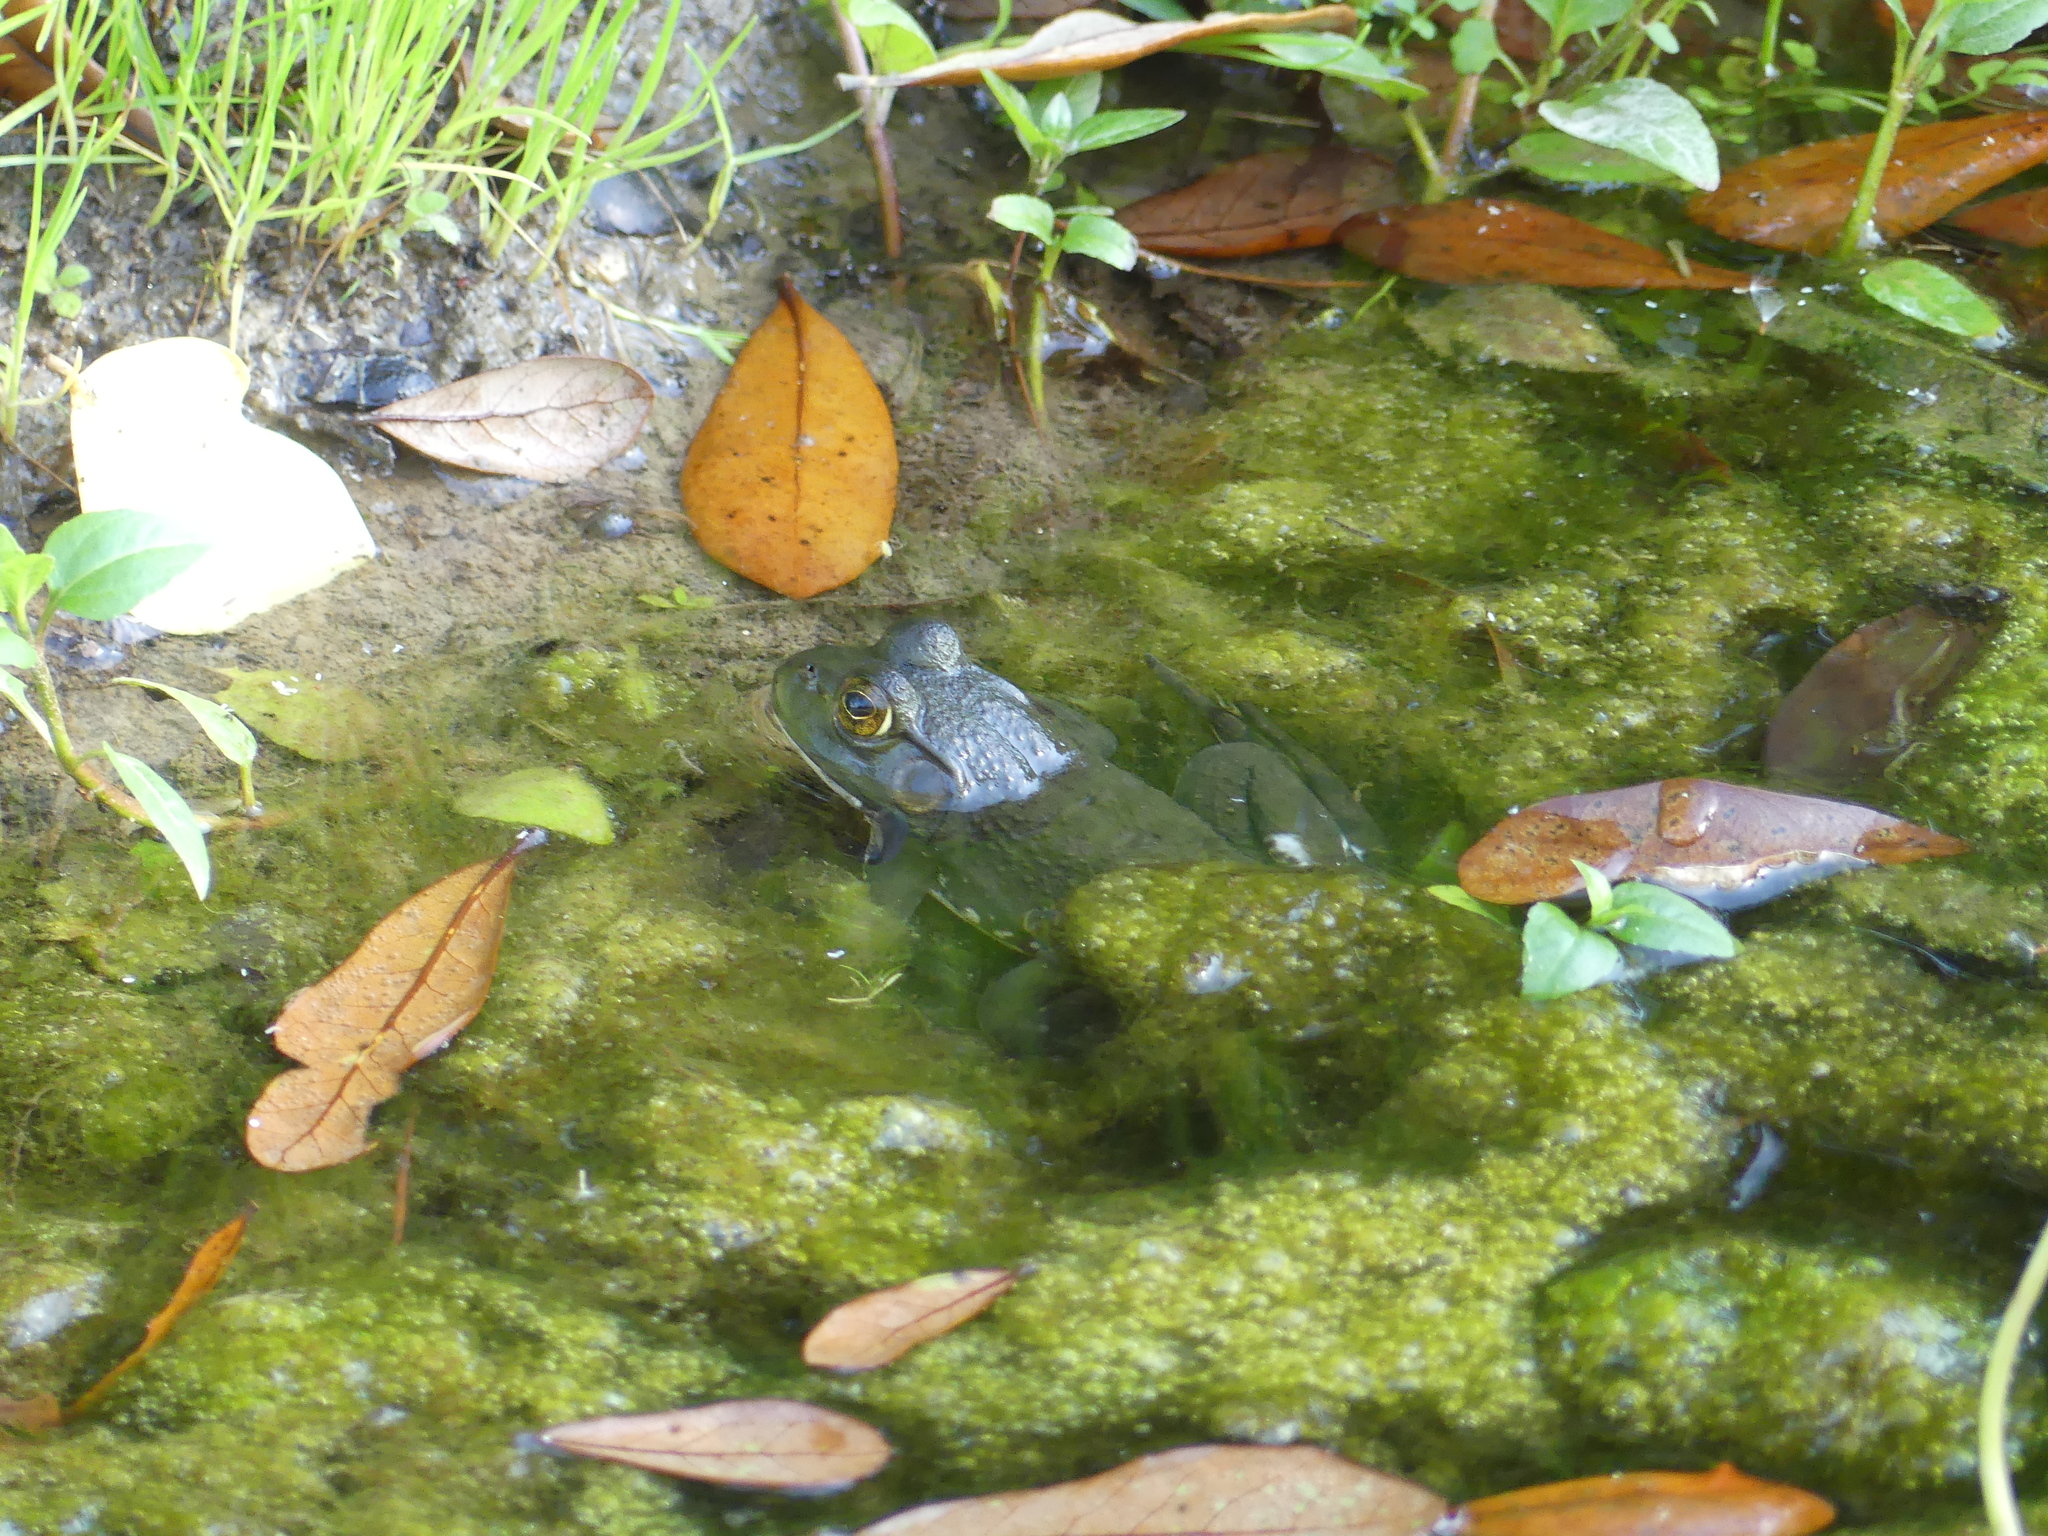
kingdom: Animalia
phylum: Chordata
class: Amphibia
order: Anura
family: Ranidae
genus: Lithobates
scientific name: Lithobates catesbeianus
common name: American bullfrog
